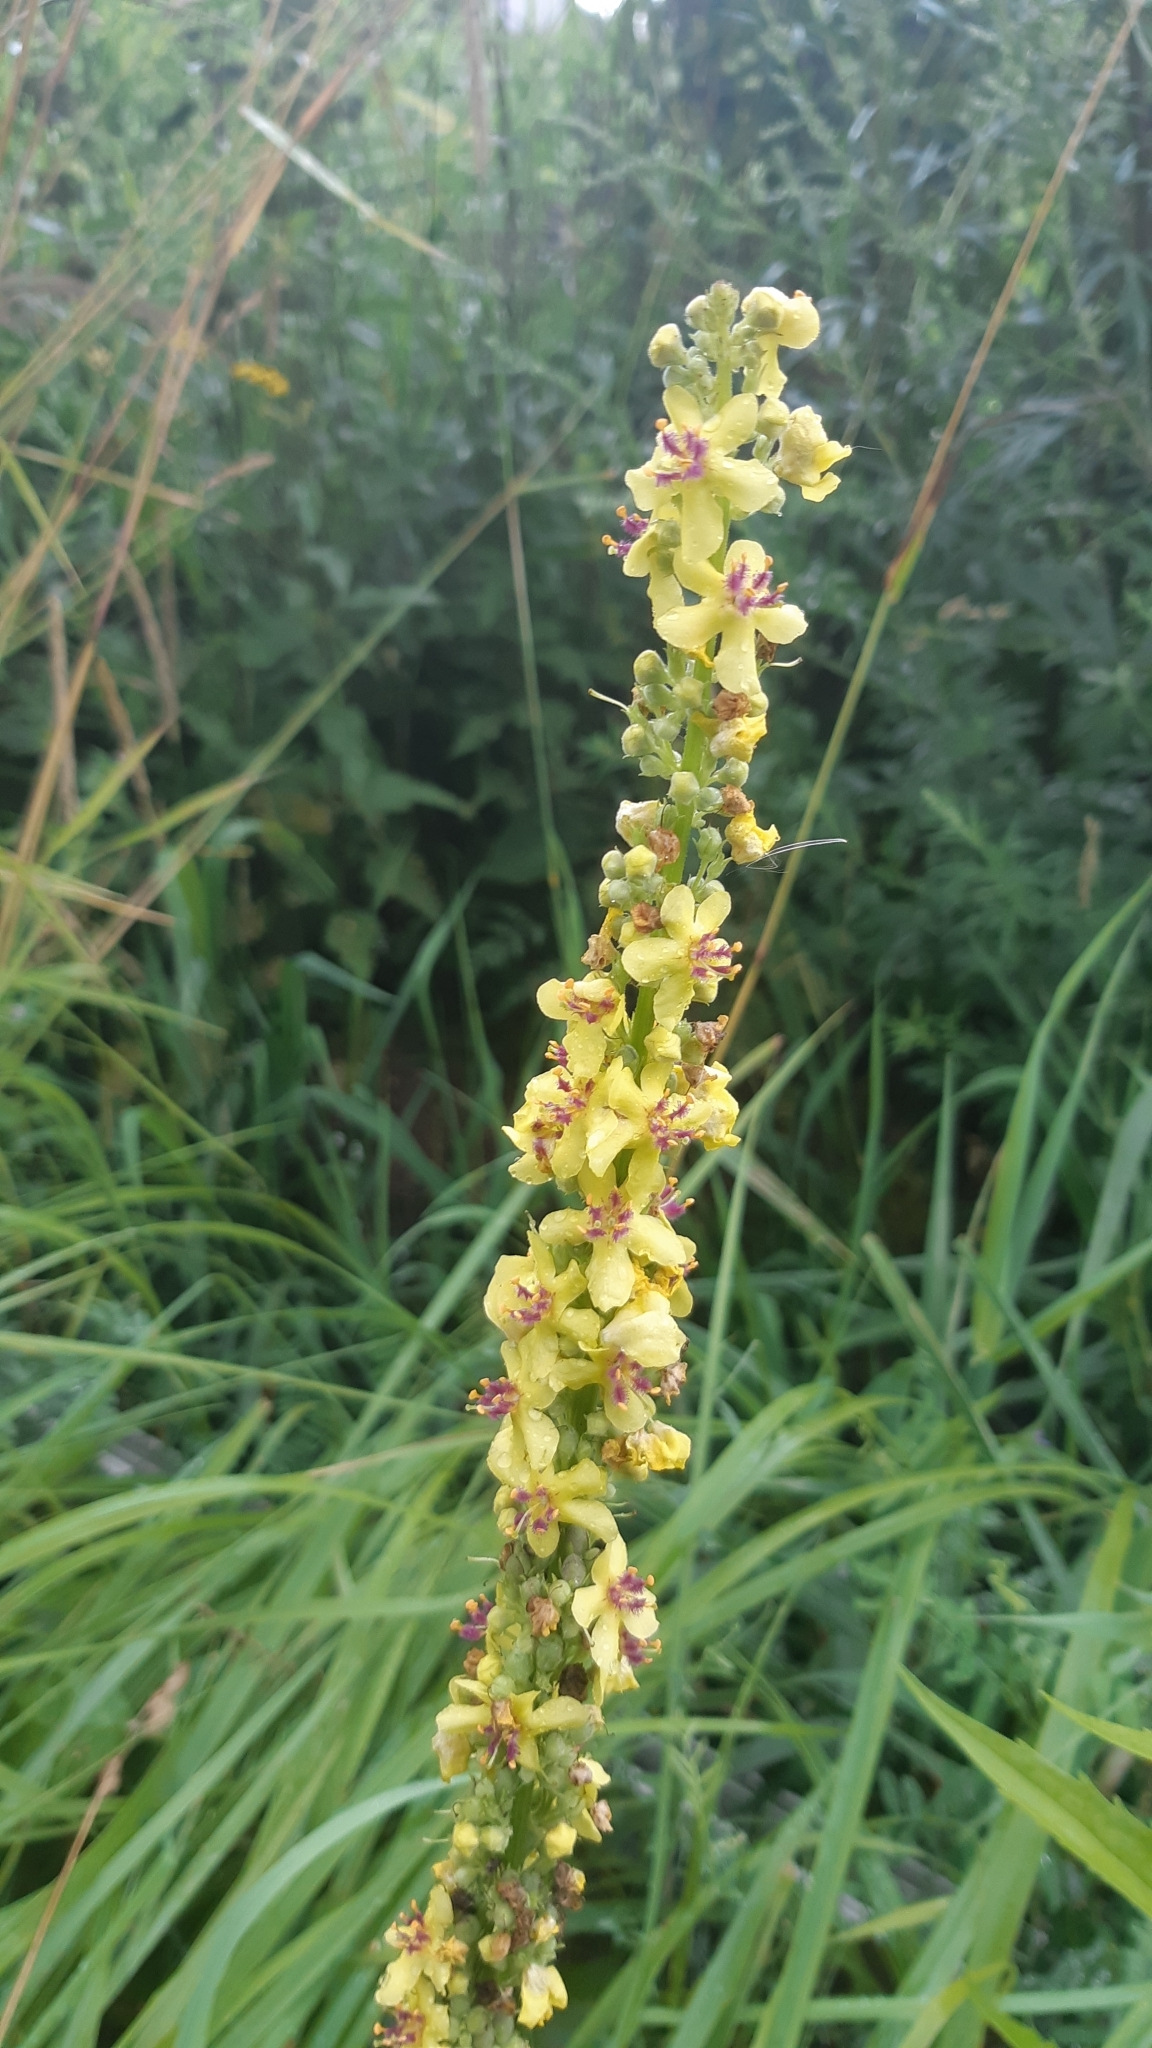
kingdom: Plantae
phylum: Tracheophyta
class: Magnoliopsida
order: Lamiales
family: Scrophulariaceae
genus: Verbascum
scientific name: Verbascum nigrum
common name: Dark mullein
